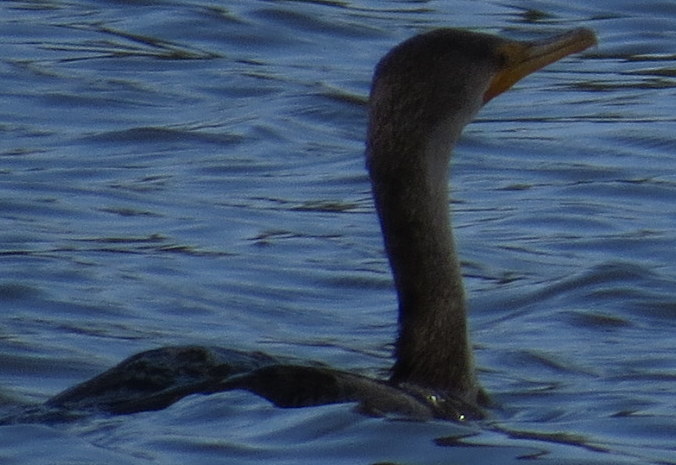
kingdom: Animalia
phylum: Chordata
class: Aves
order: Suliformes
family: Phalacrocoracidae
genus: Phalacrocorax
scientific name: Phalacrocorax auritus
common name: Double-crested cormorant
